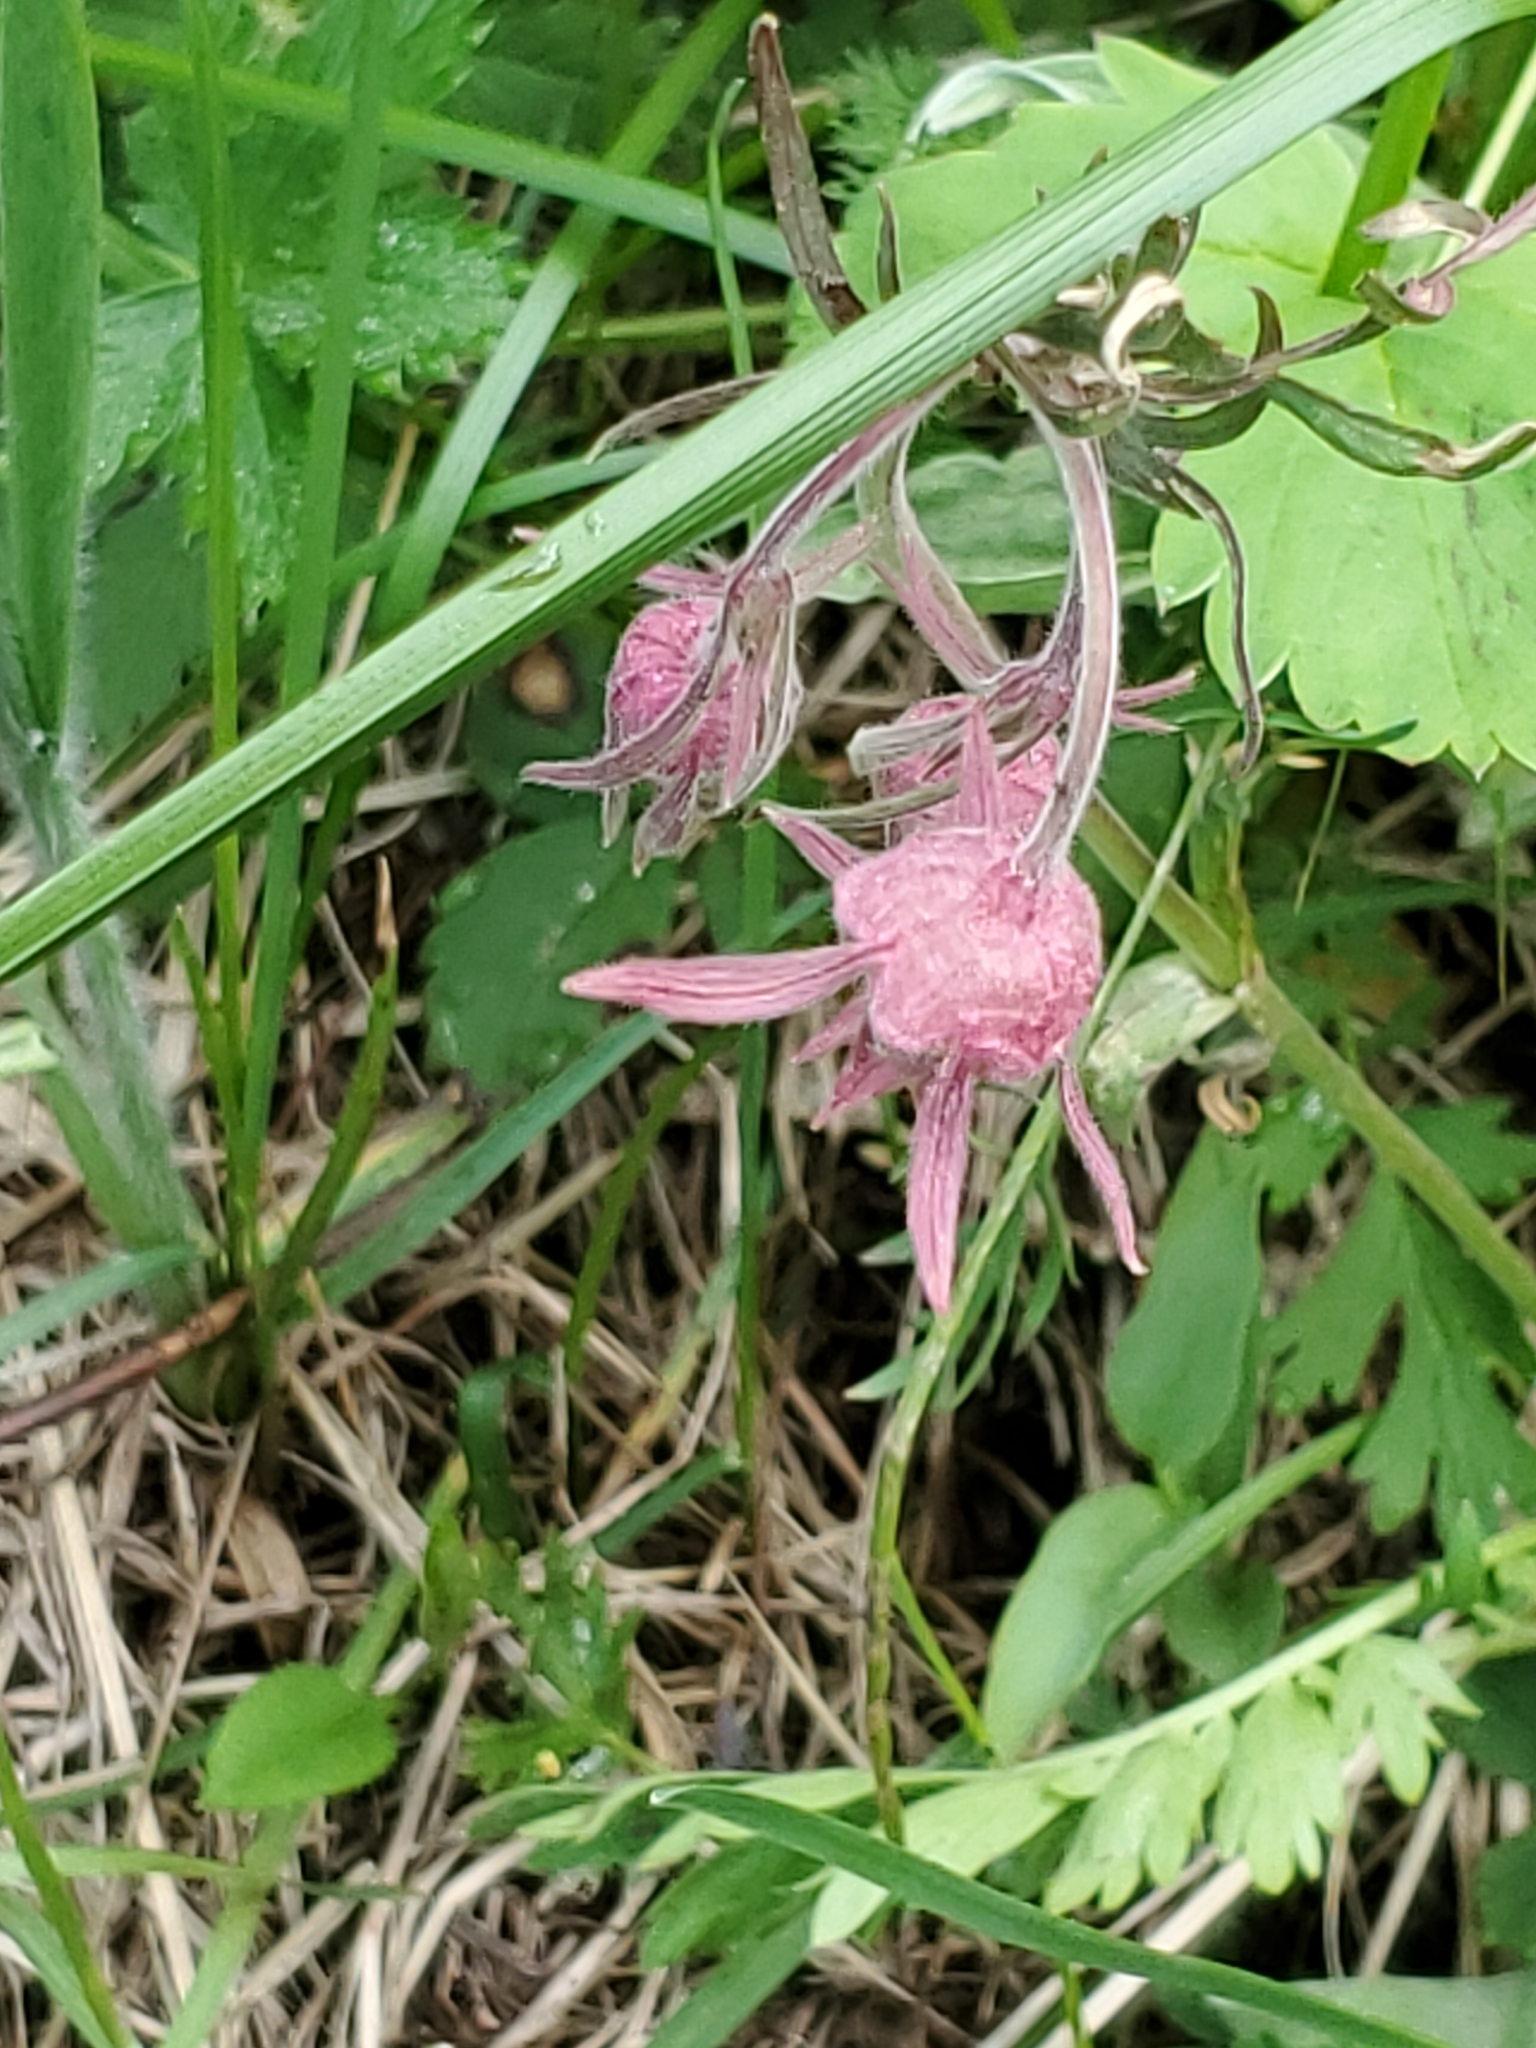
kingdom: Plantae
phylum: Tracheophyta
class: Magnoliopsida
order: Rosales
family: Rosaceae
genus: Geum
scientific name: Geum triflorum
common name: Old man's whiskers
